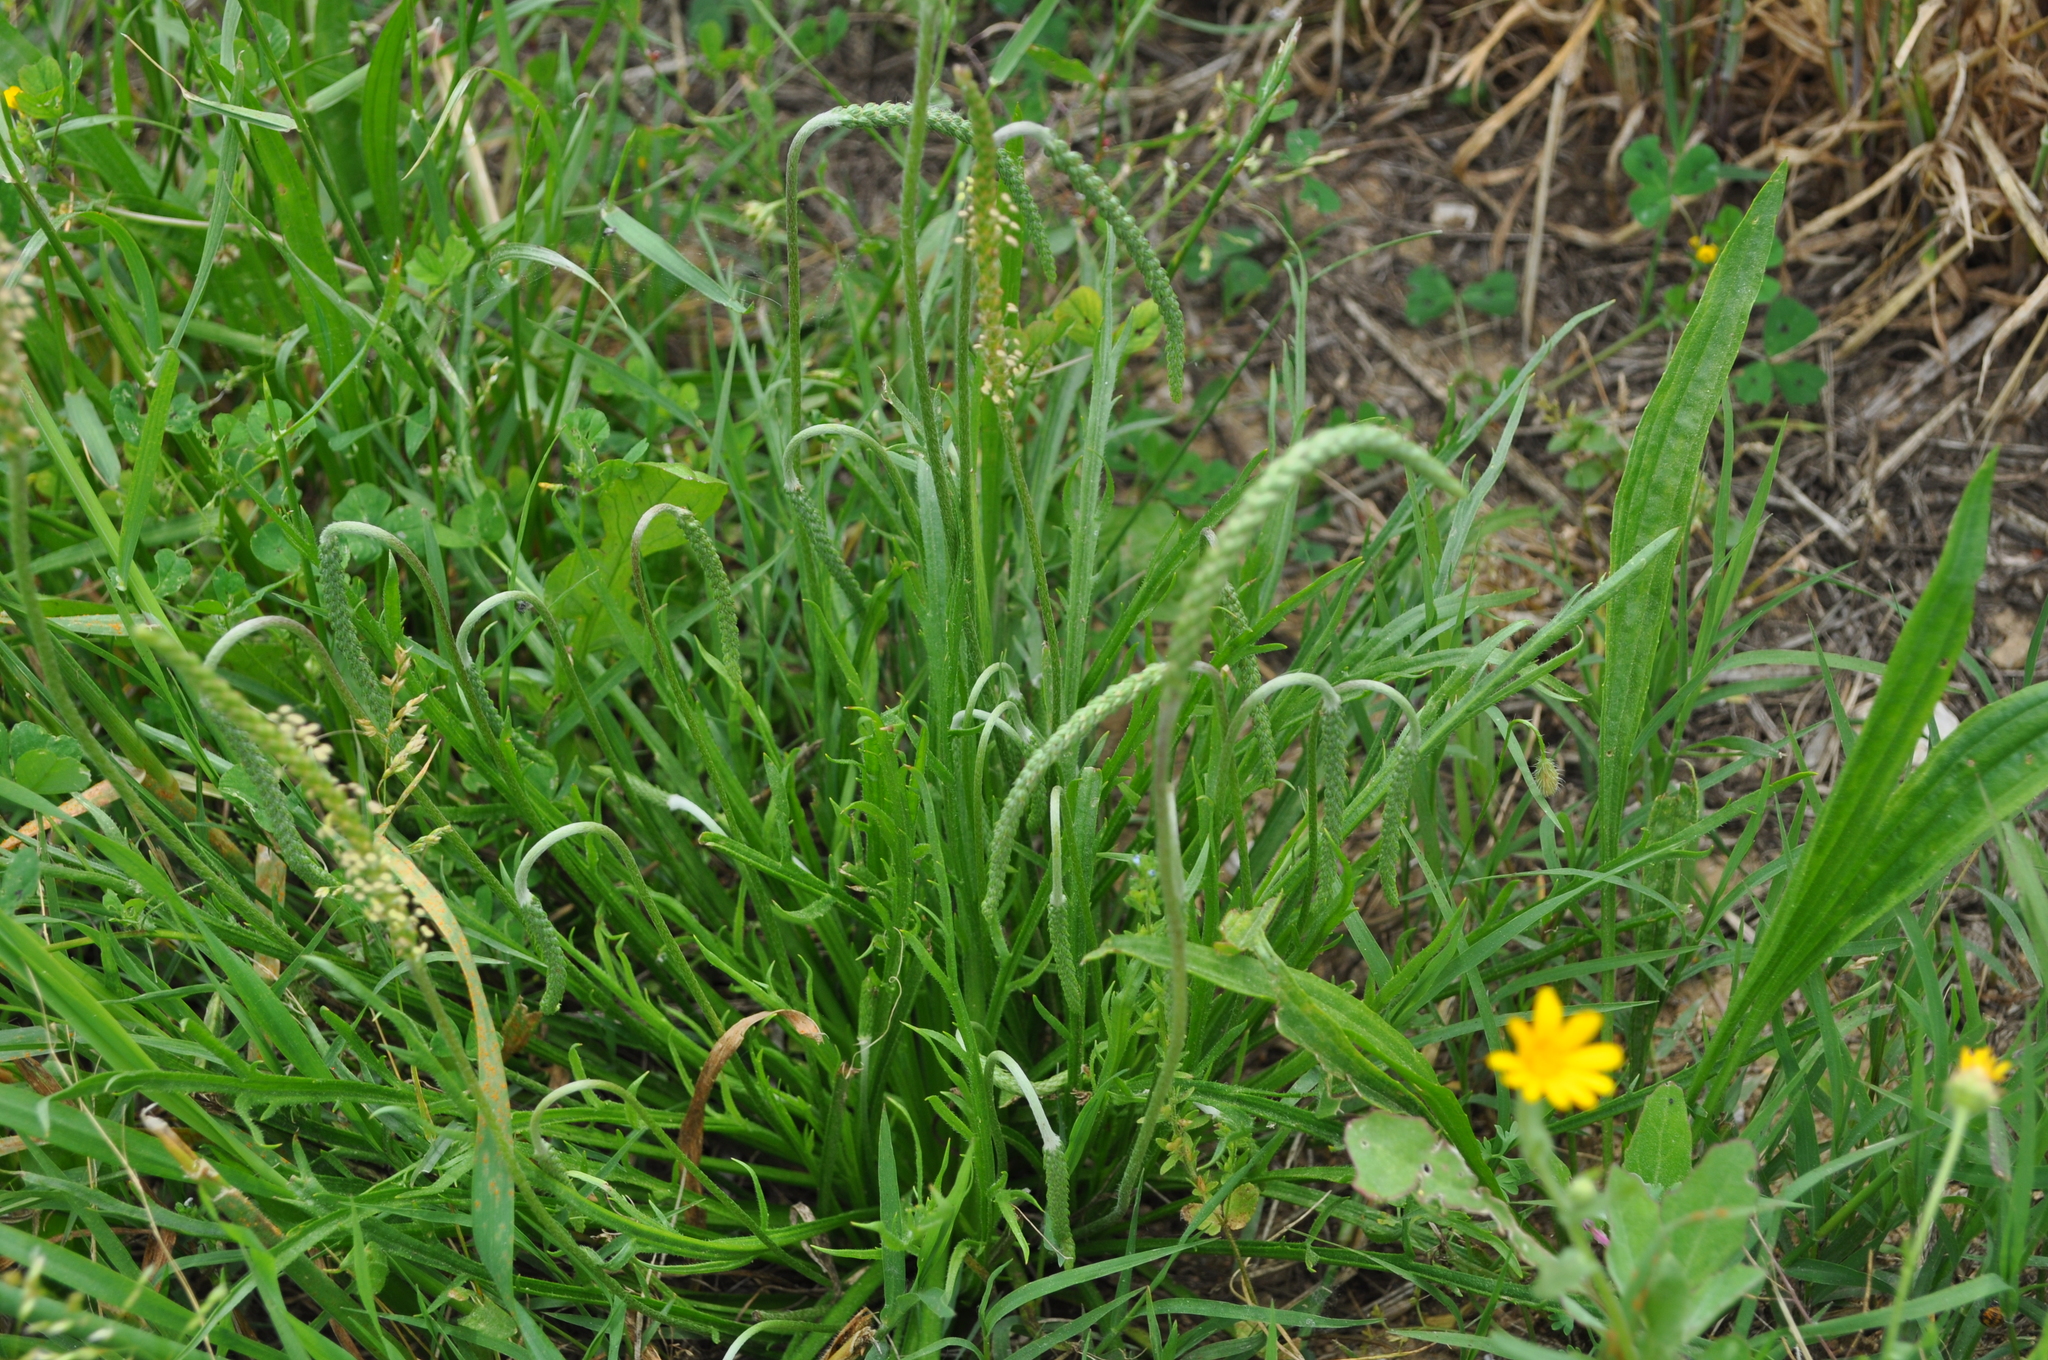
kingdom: Plantae
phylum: Tracheophyta
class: Magnoliopsida
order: Lamiales
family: Plantaginaceae
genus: Plantago
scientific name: Plantago coronopus
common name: Buck's-horn plantain
